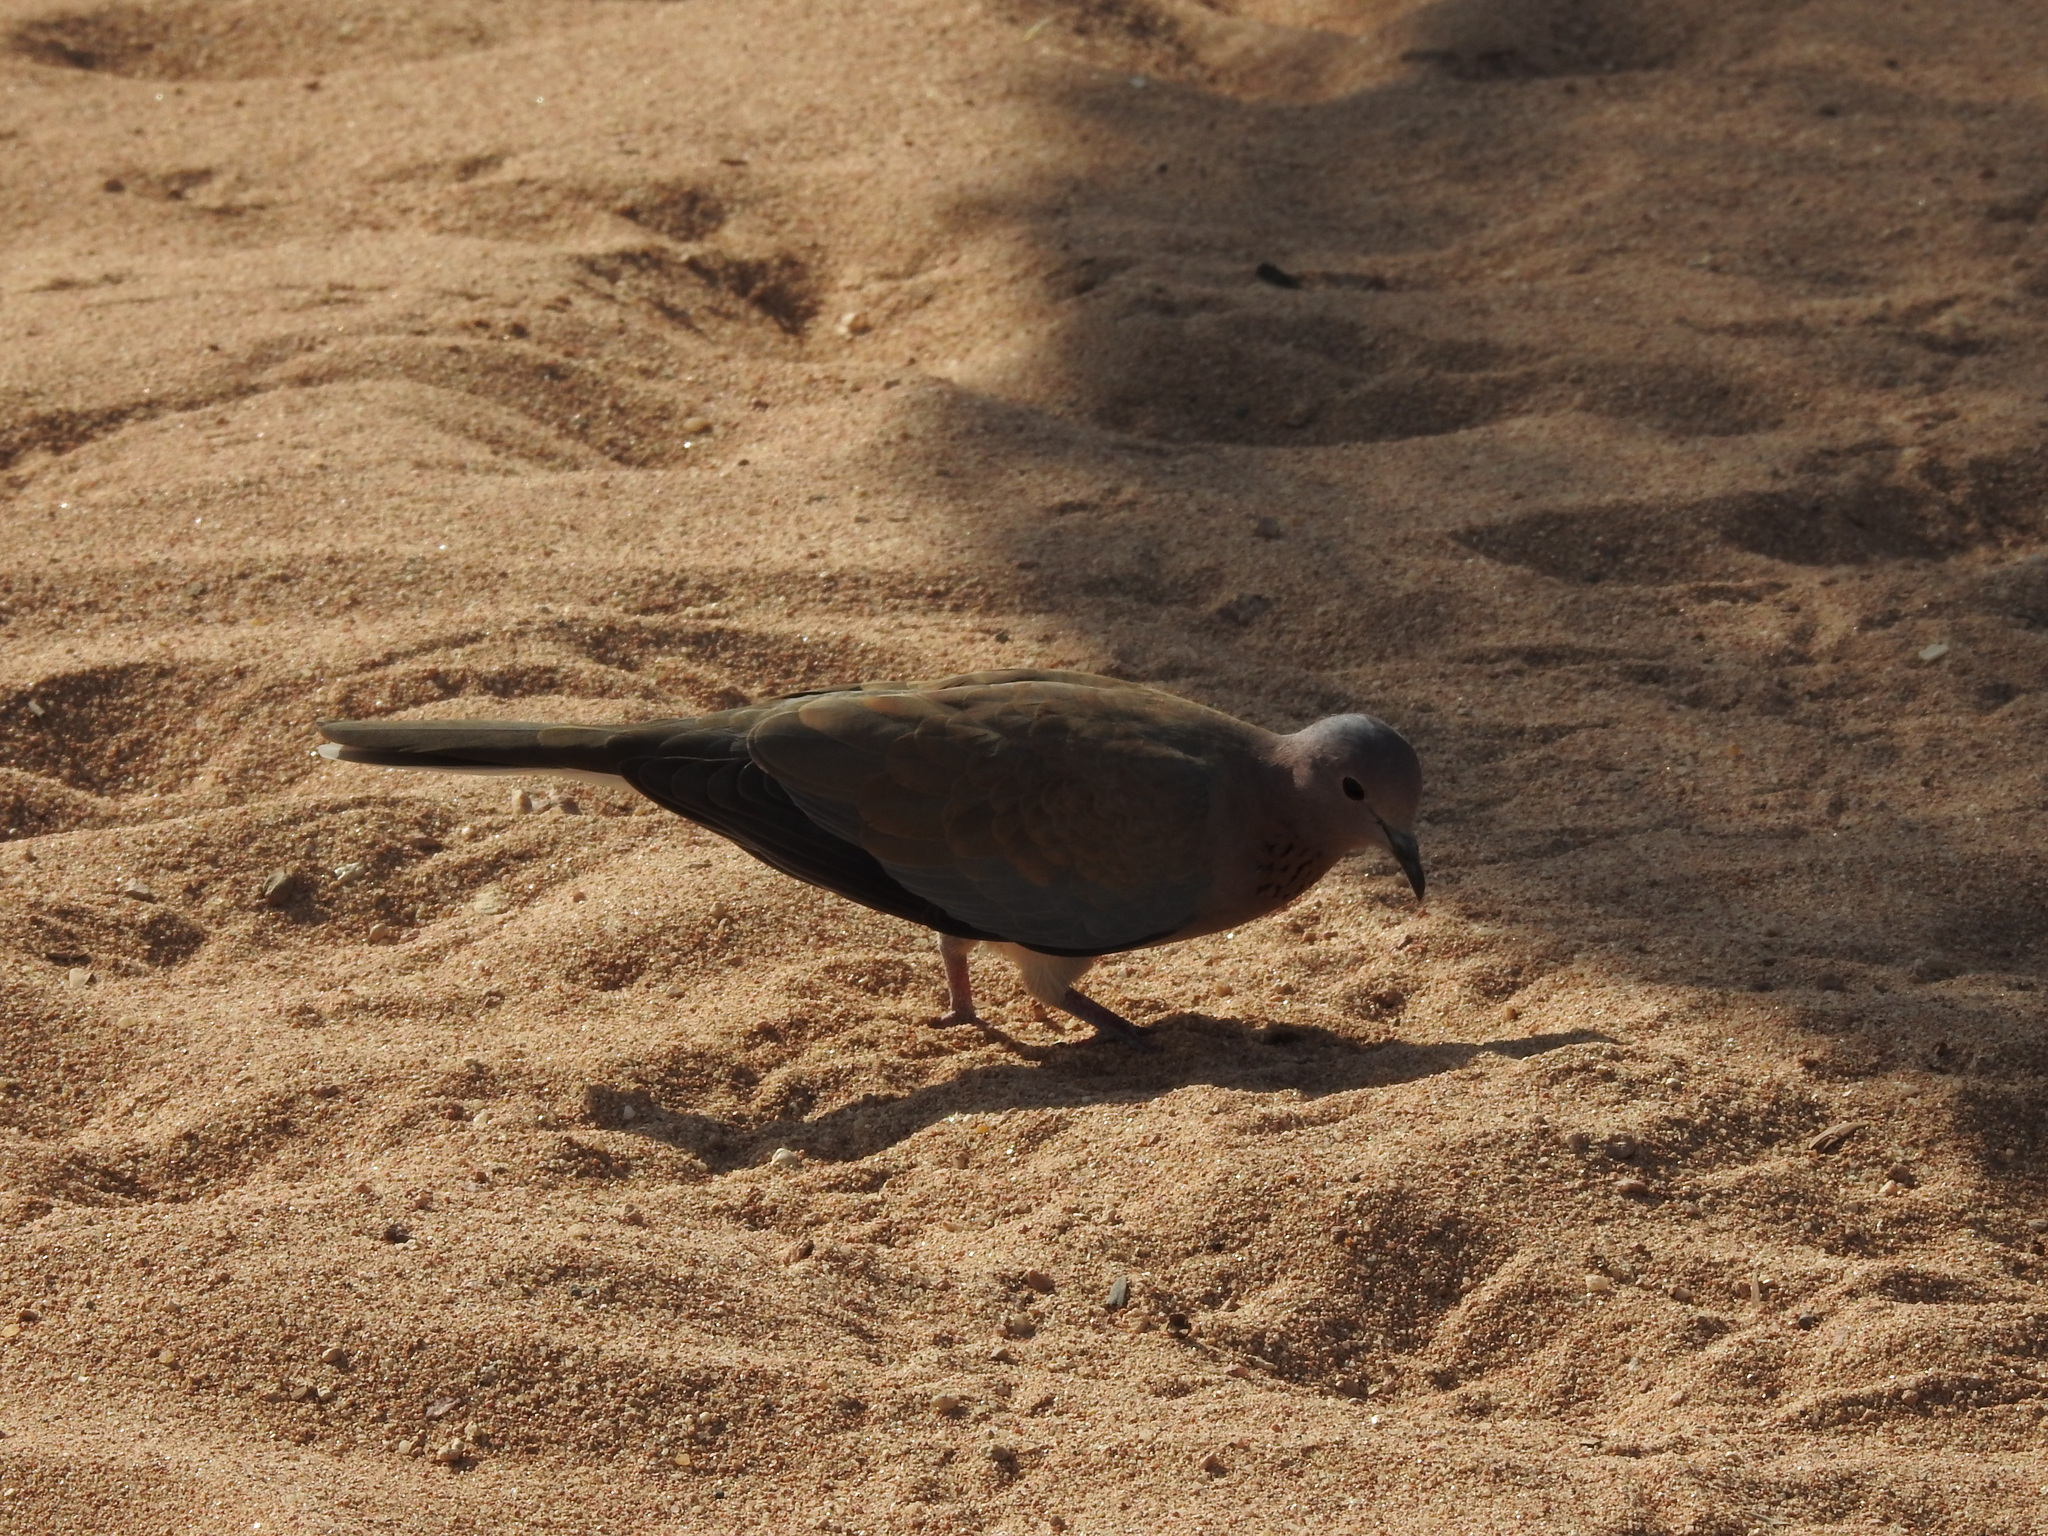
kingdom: Animalia
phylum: Chordata
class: Aves
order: Columbiformes
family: Columbidae
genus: Spilopelia
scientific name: Spilopelia senegalensis
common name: Laughing dove
